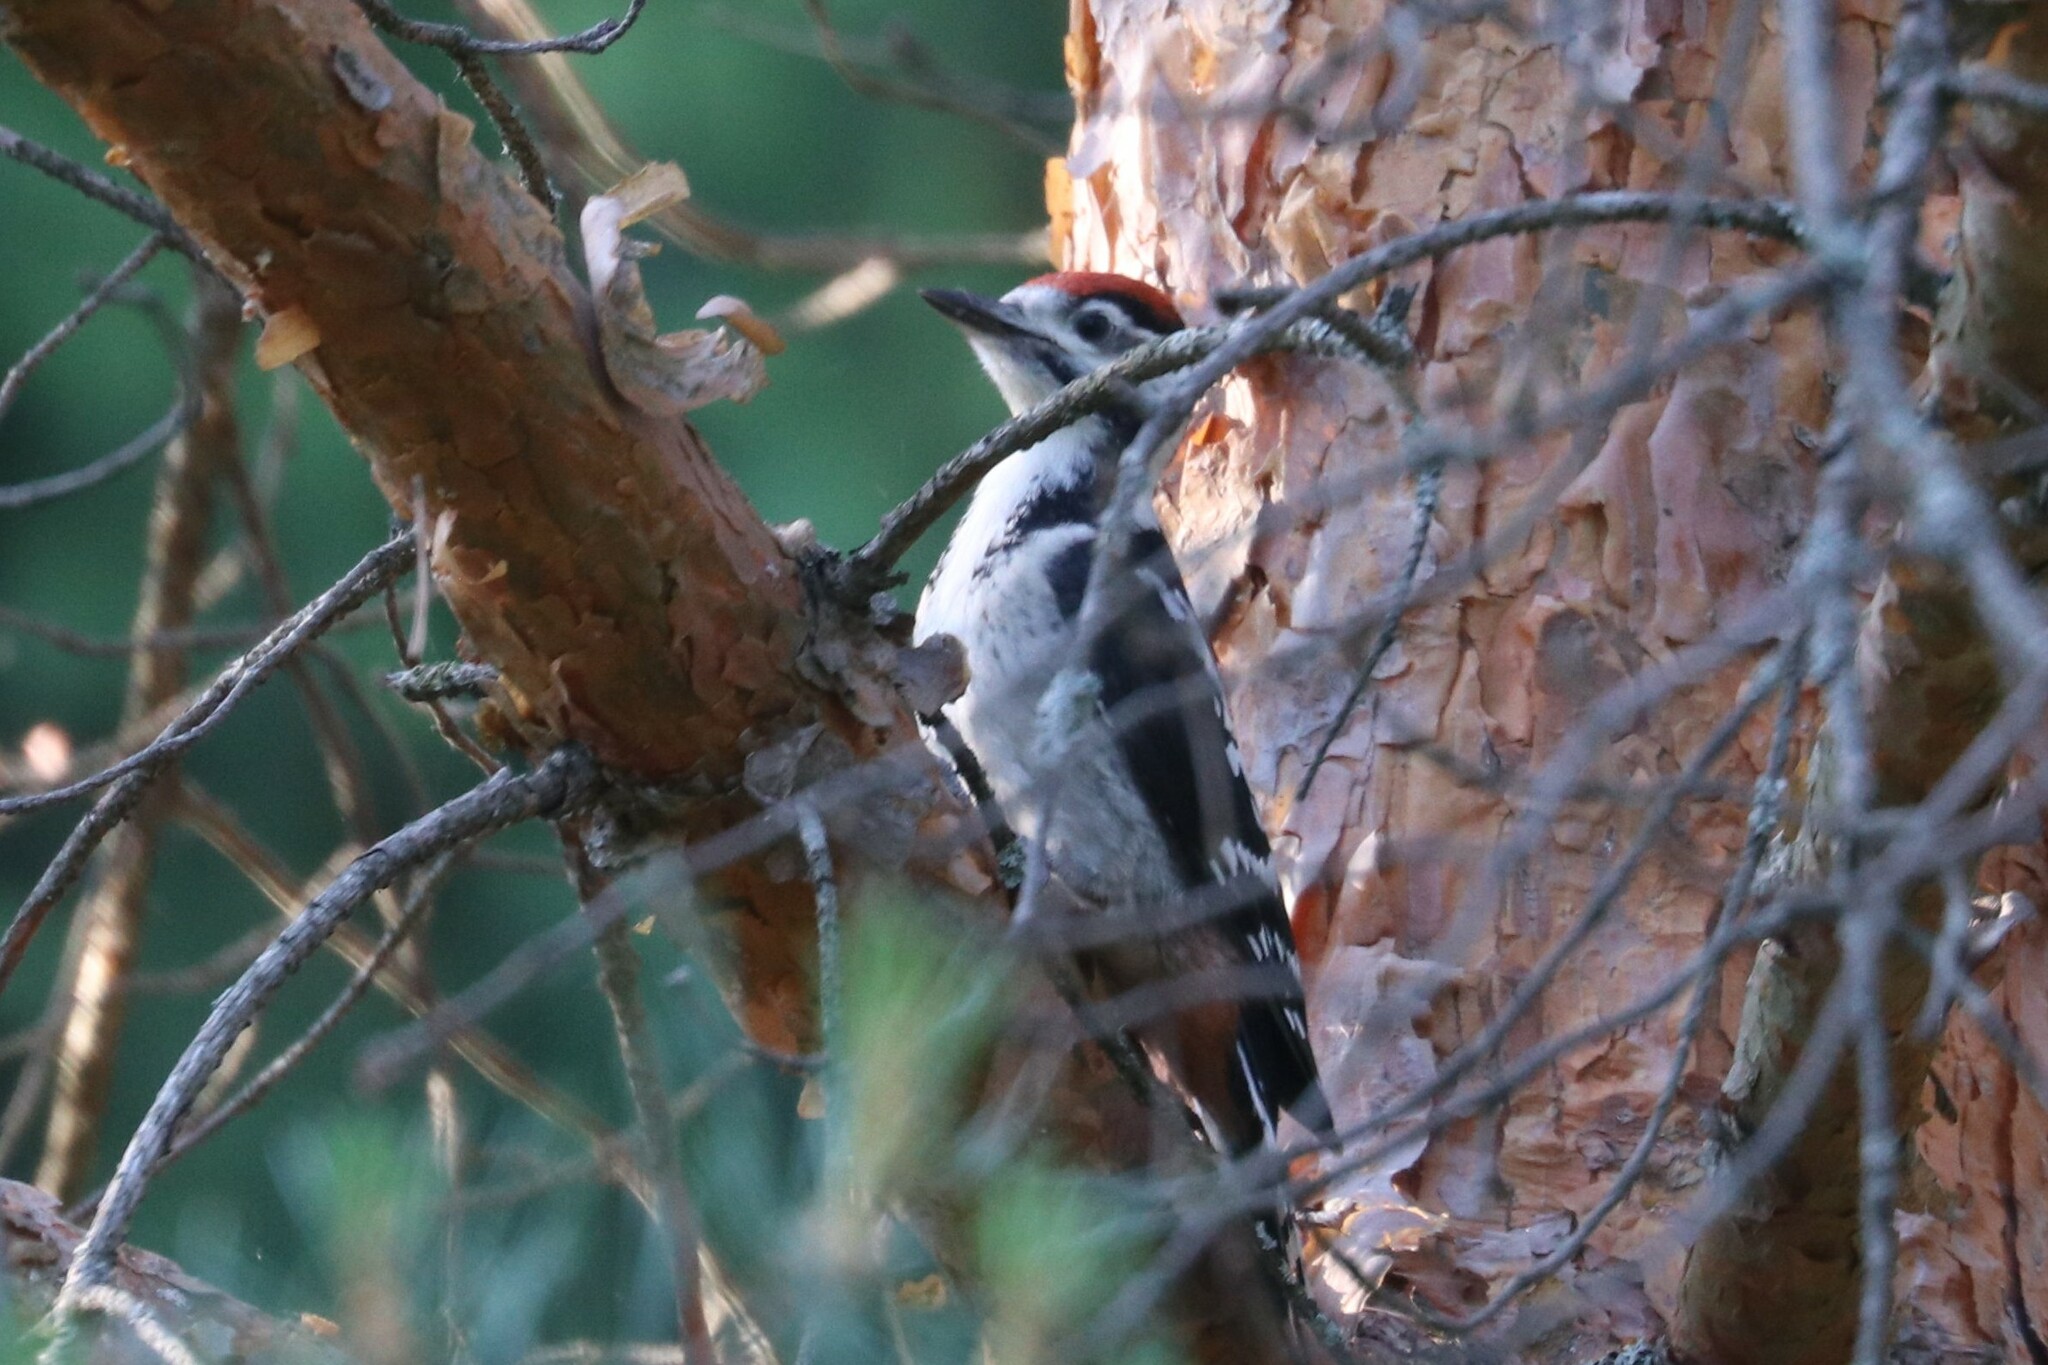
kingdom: Animalia
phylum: Chordata
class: Aves
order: Piciformes
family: Picidae
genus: Dendrocopos
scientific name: Dendrocopos leucotos
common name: White-backed woodpecker
